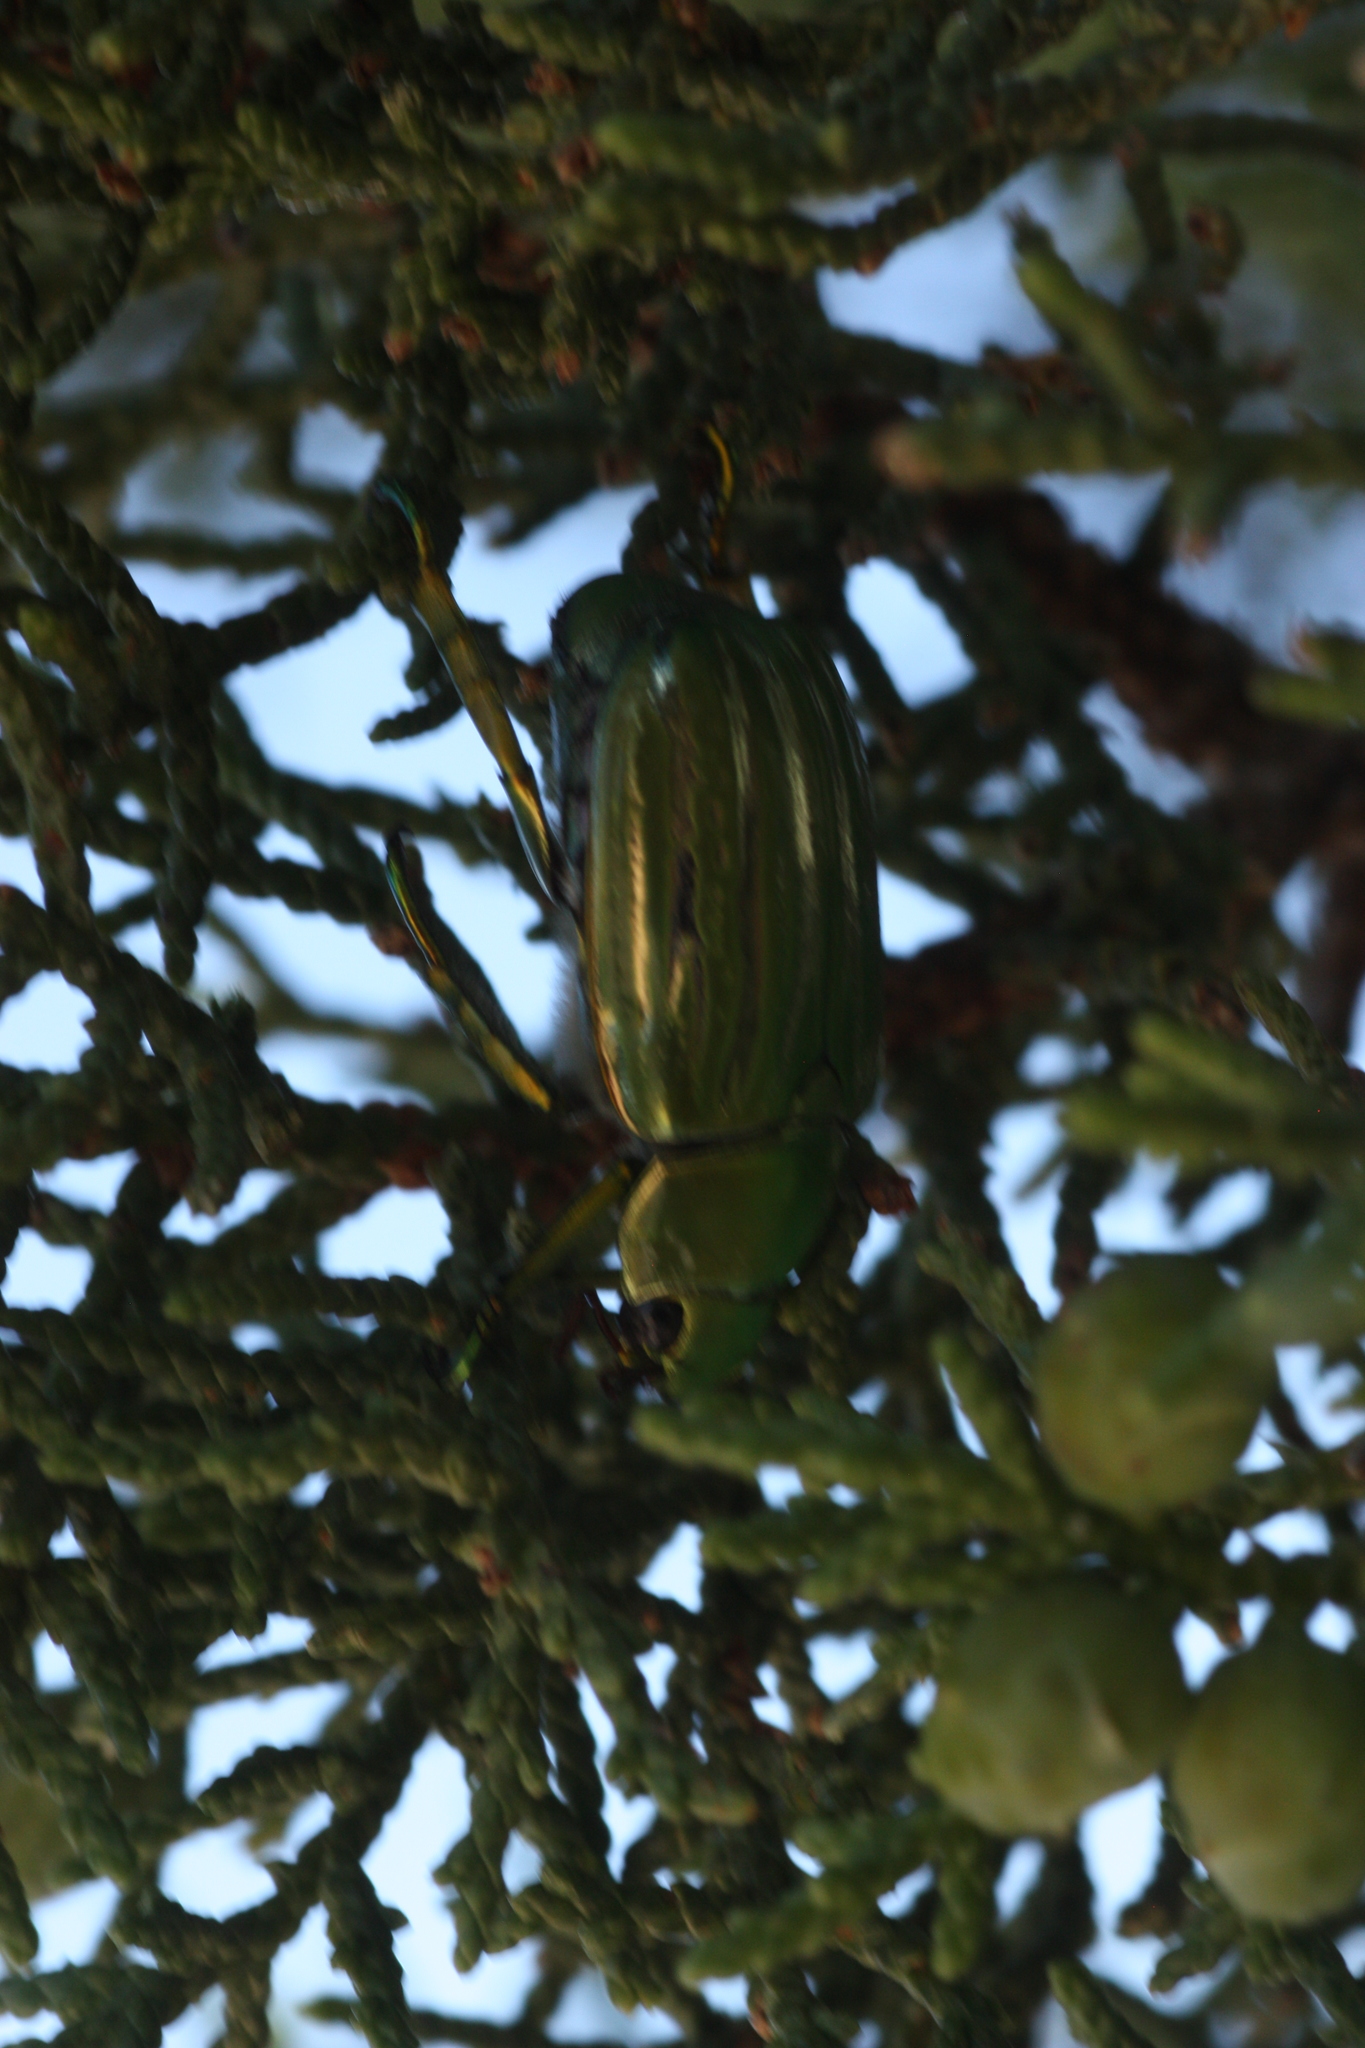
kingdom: Animalia
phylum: Arthropoda
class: Insecta
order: Coleoptera
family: Scarabaeidae
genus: Chrysina
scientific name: Chrysina gloriosa
